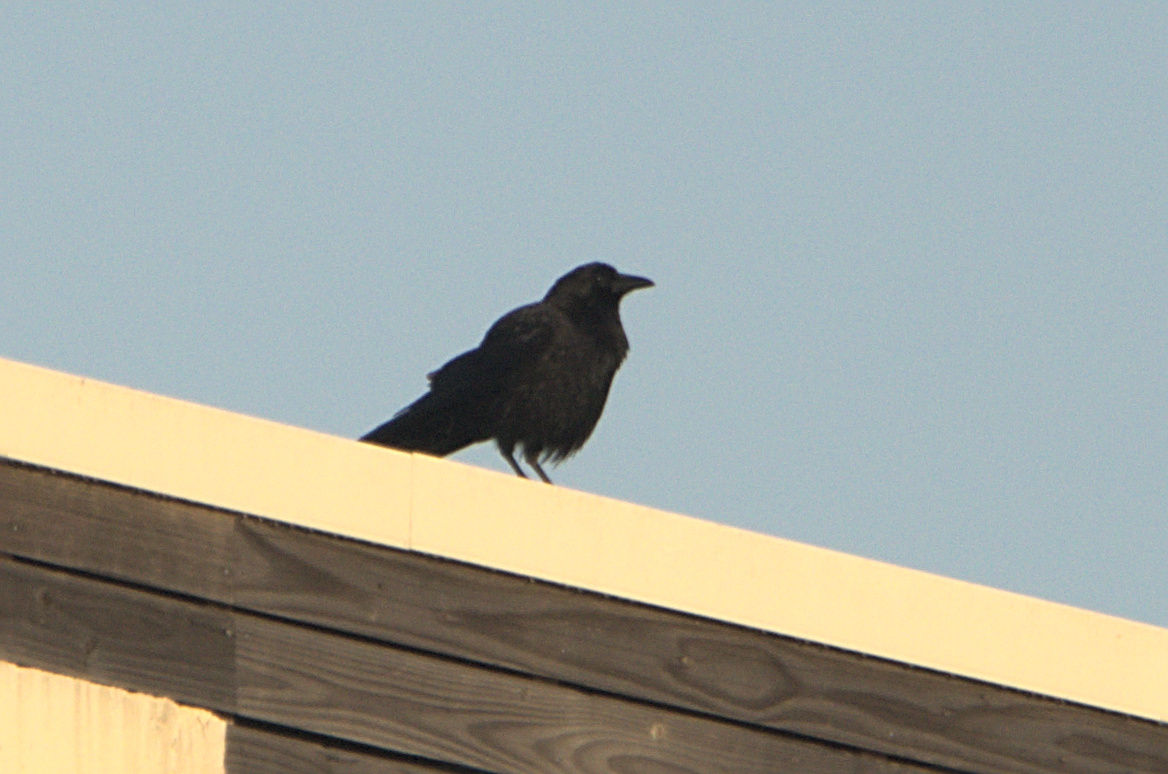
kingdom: Animalia
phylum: Chordata
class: Aves
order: Passeriformes
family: Corvidae
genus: Corvus
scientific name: Corvus corone
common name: Carrion crow
